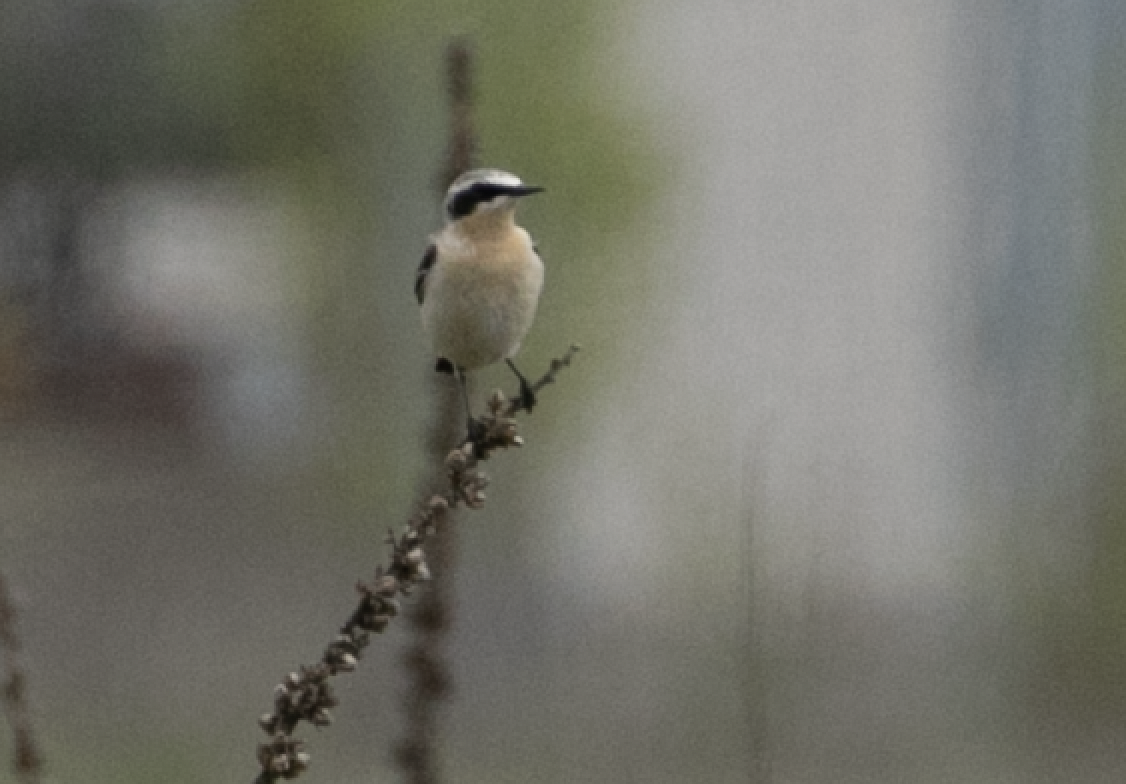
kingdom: Animalia
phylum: Chordata
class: Aves
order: Passeriformes
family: Muscicapidae
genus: Oenanthe
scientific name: Oenanthe oenanthe
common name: Northern wheatear
